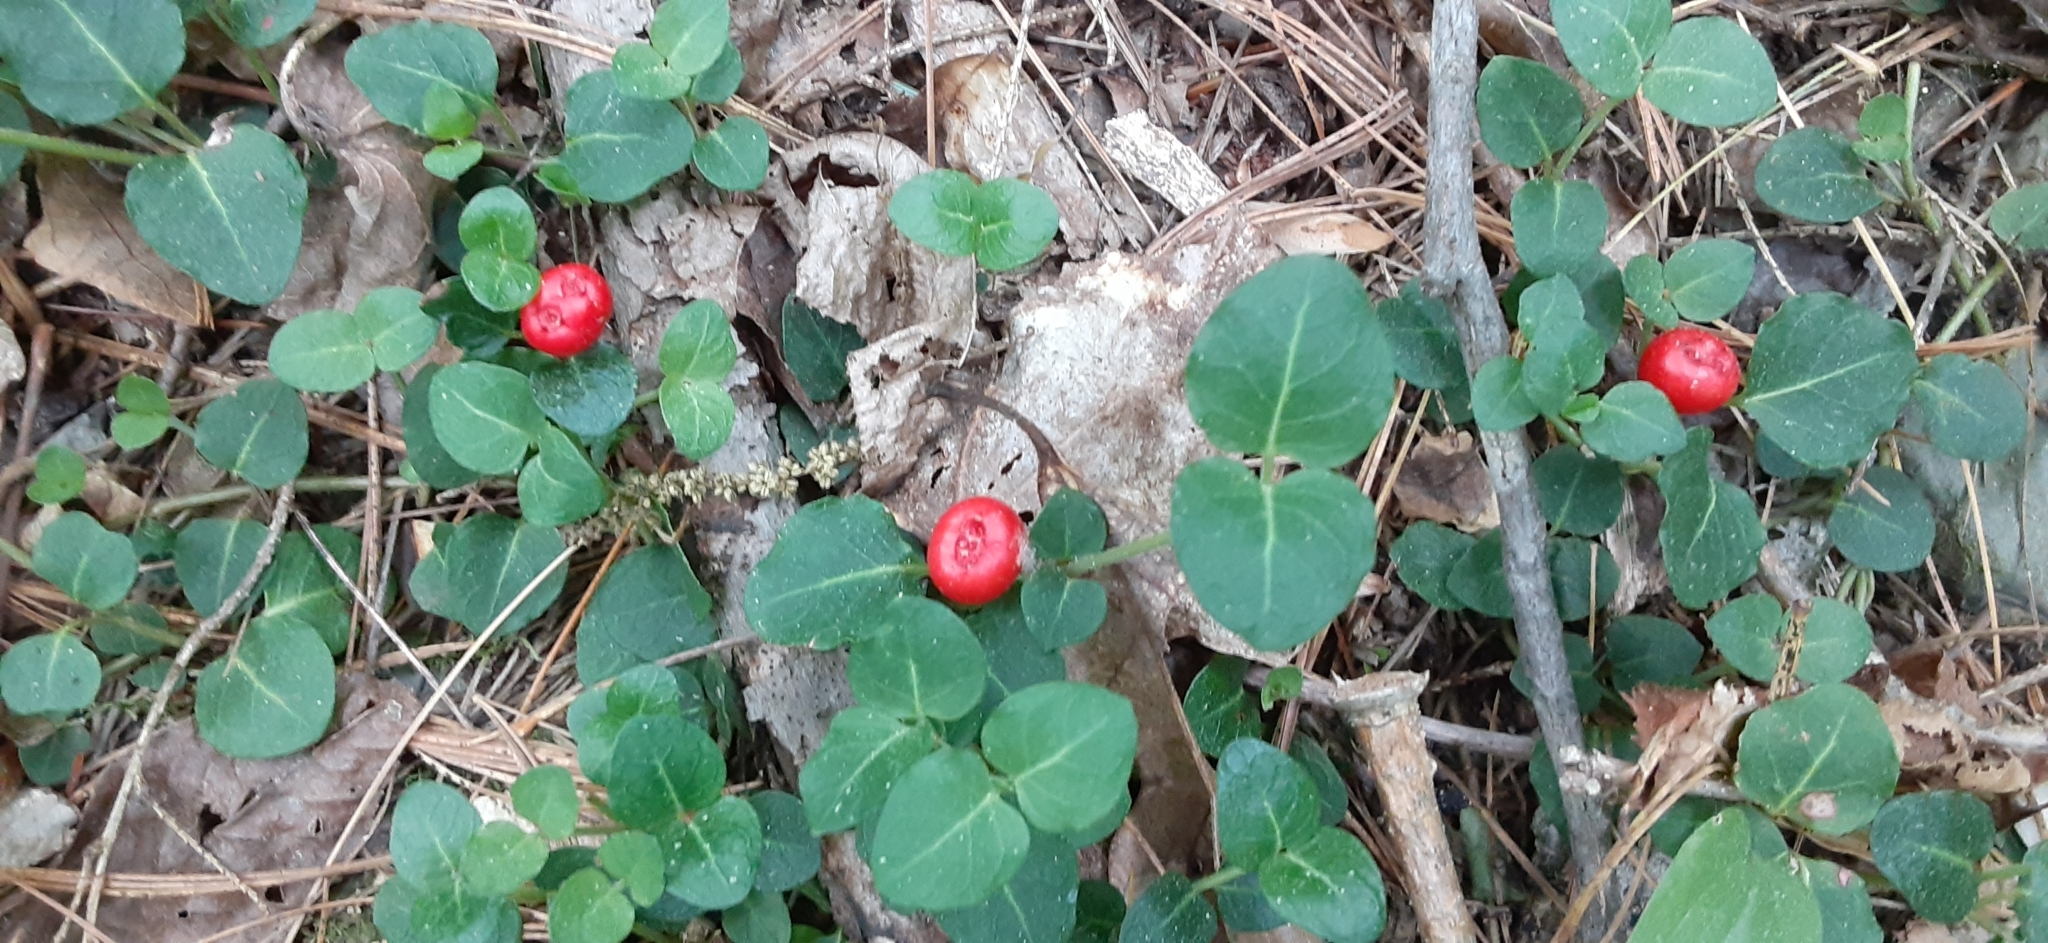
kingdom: Plantae
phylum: Tracheophyta
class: Magnoliopsida
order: Gentianales
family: Rubiaceae
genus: Mitchella
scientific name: Mitchella repens
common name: Partridge-berry
